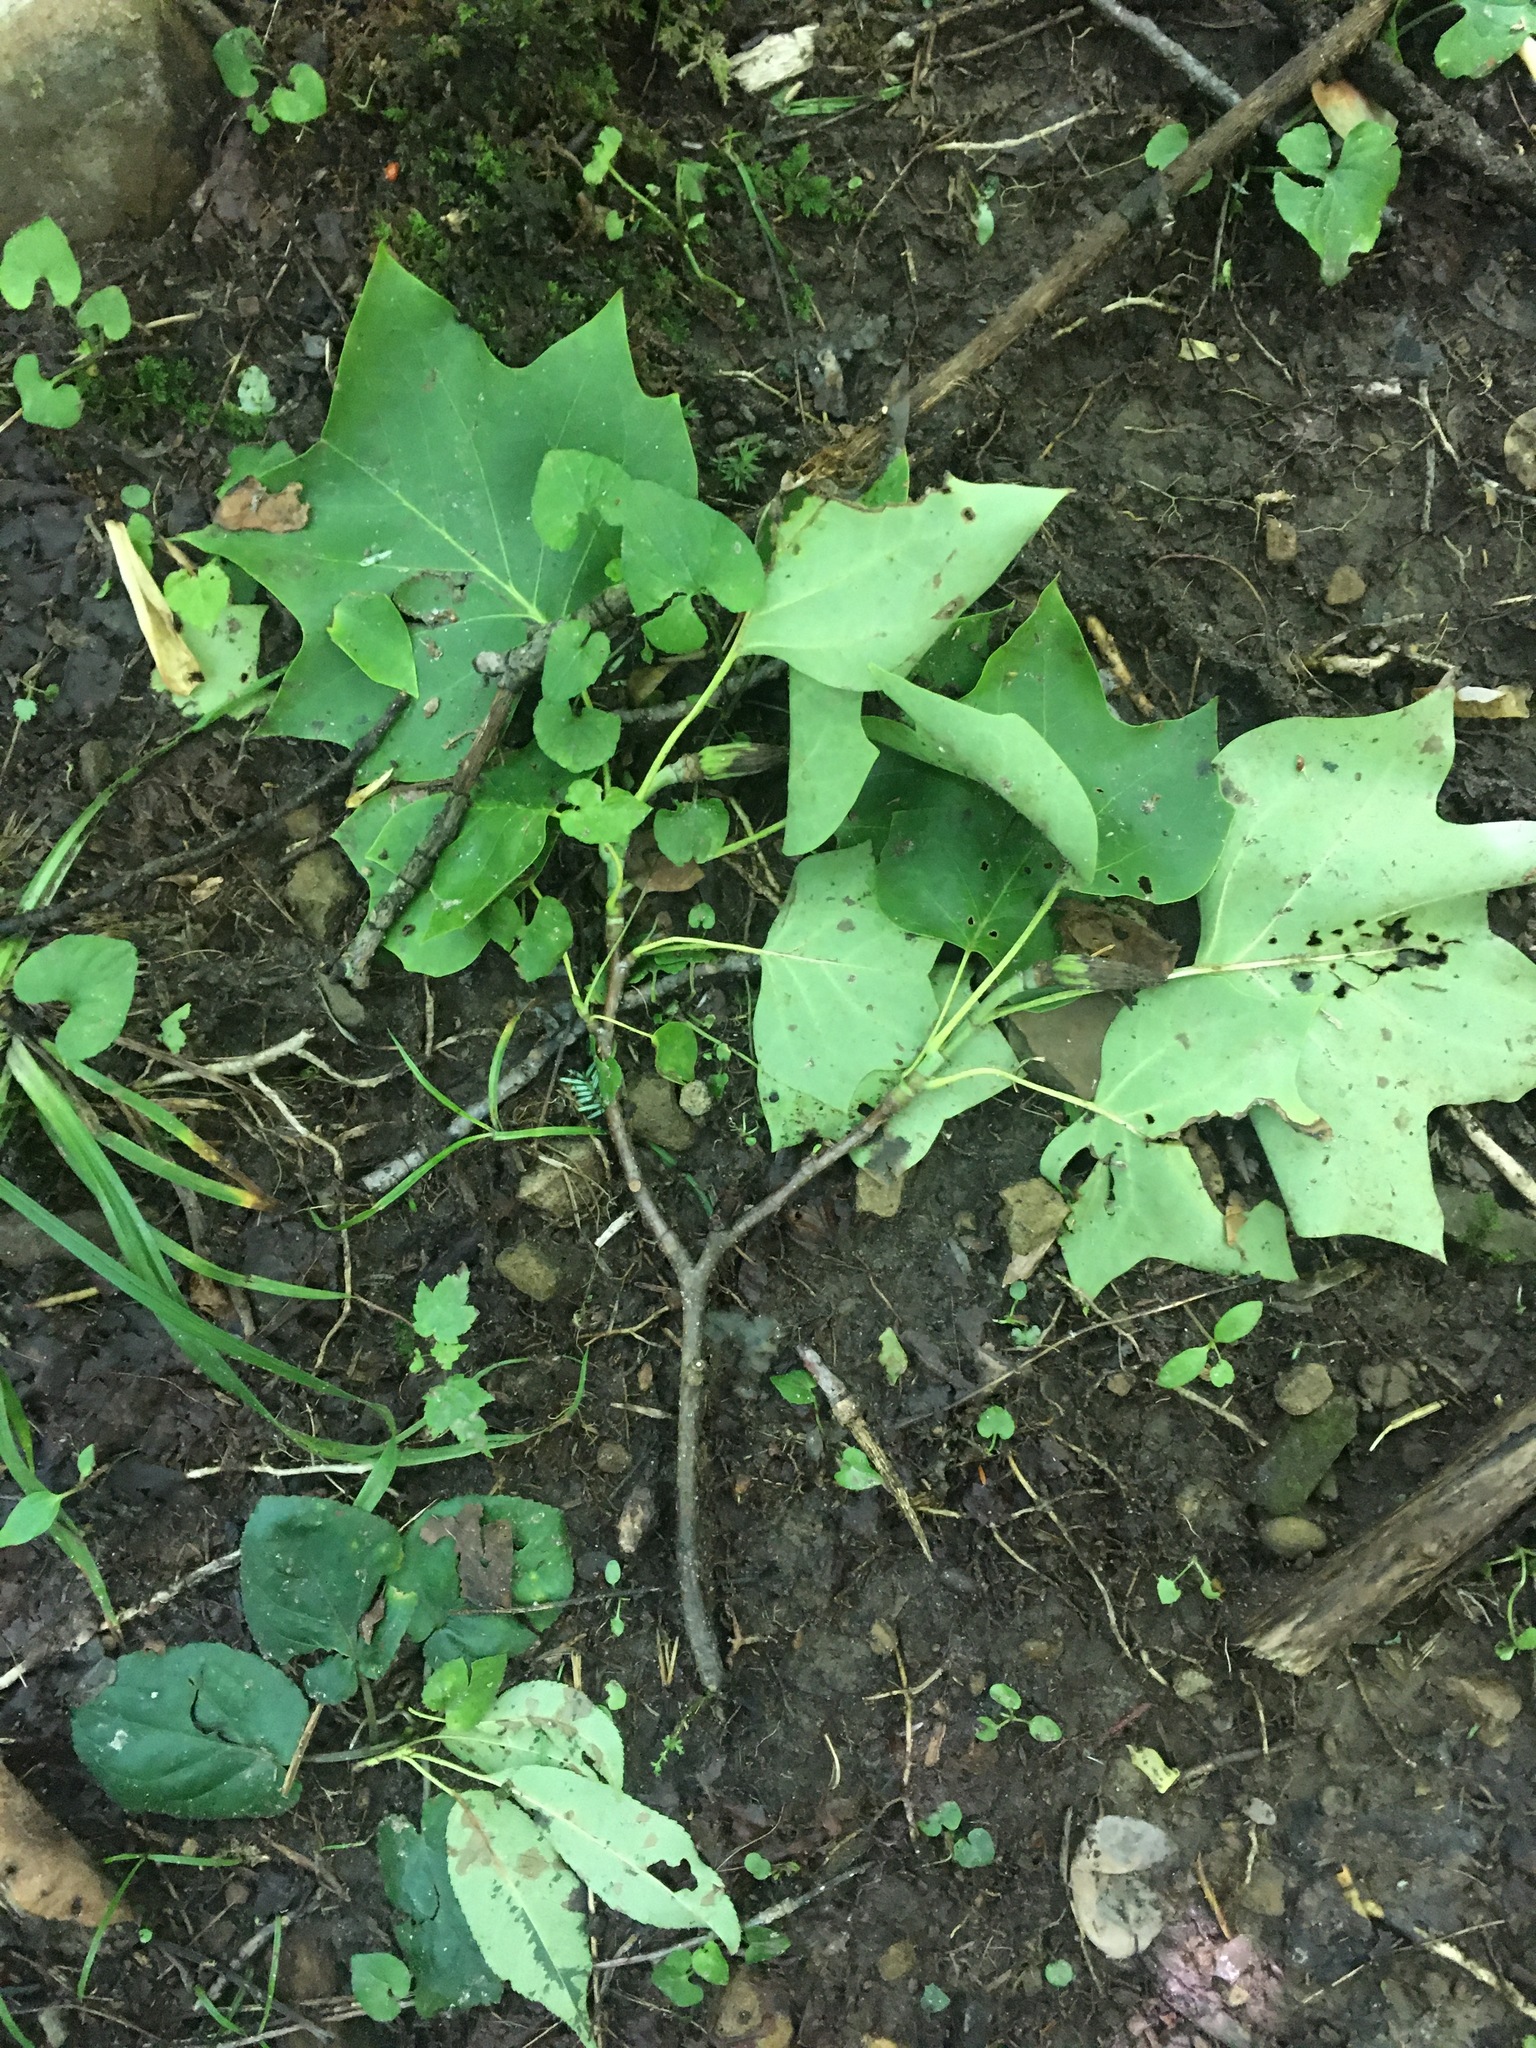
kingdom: Plantae
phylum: Tracheophyta
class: Magnoliopsida
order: Magnoliales
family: Magnoliaceae
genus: Liriodendron
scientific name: Liriodendron tulipifera
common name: Tulip tree
